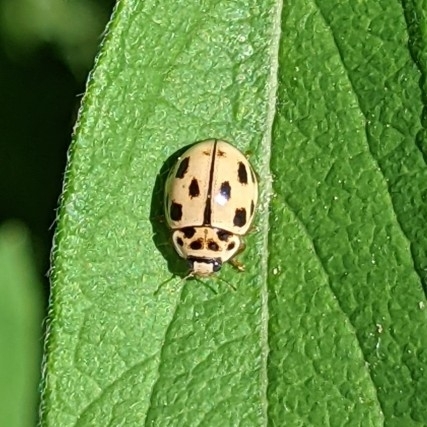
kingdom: Animalia
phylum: Arthropoda
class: Insecta
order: Coleoptera
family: Coccinellidae
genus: Propylaea
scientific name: Propylaea quatuordecimpunctata
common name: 14-spotted ladybird beetle
